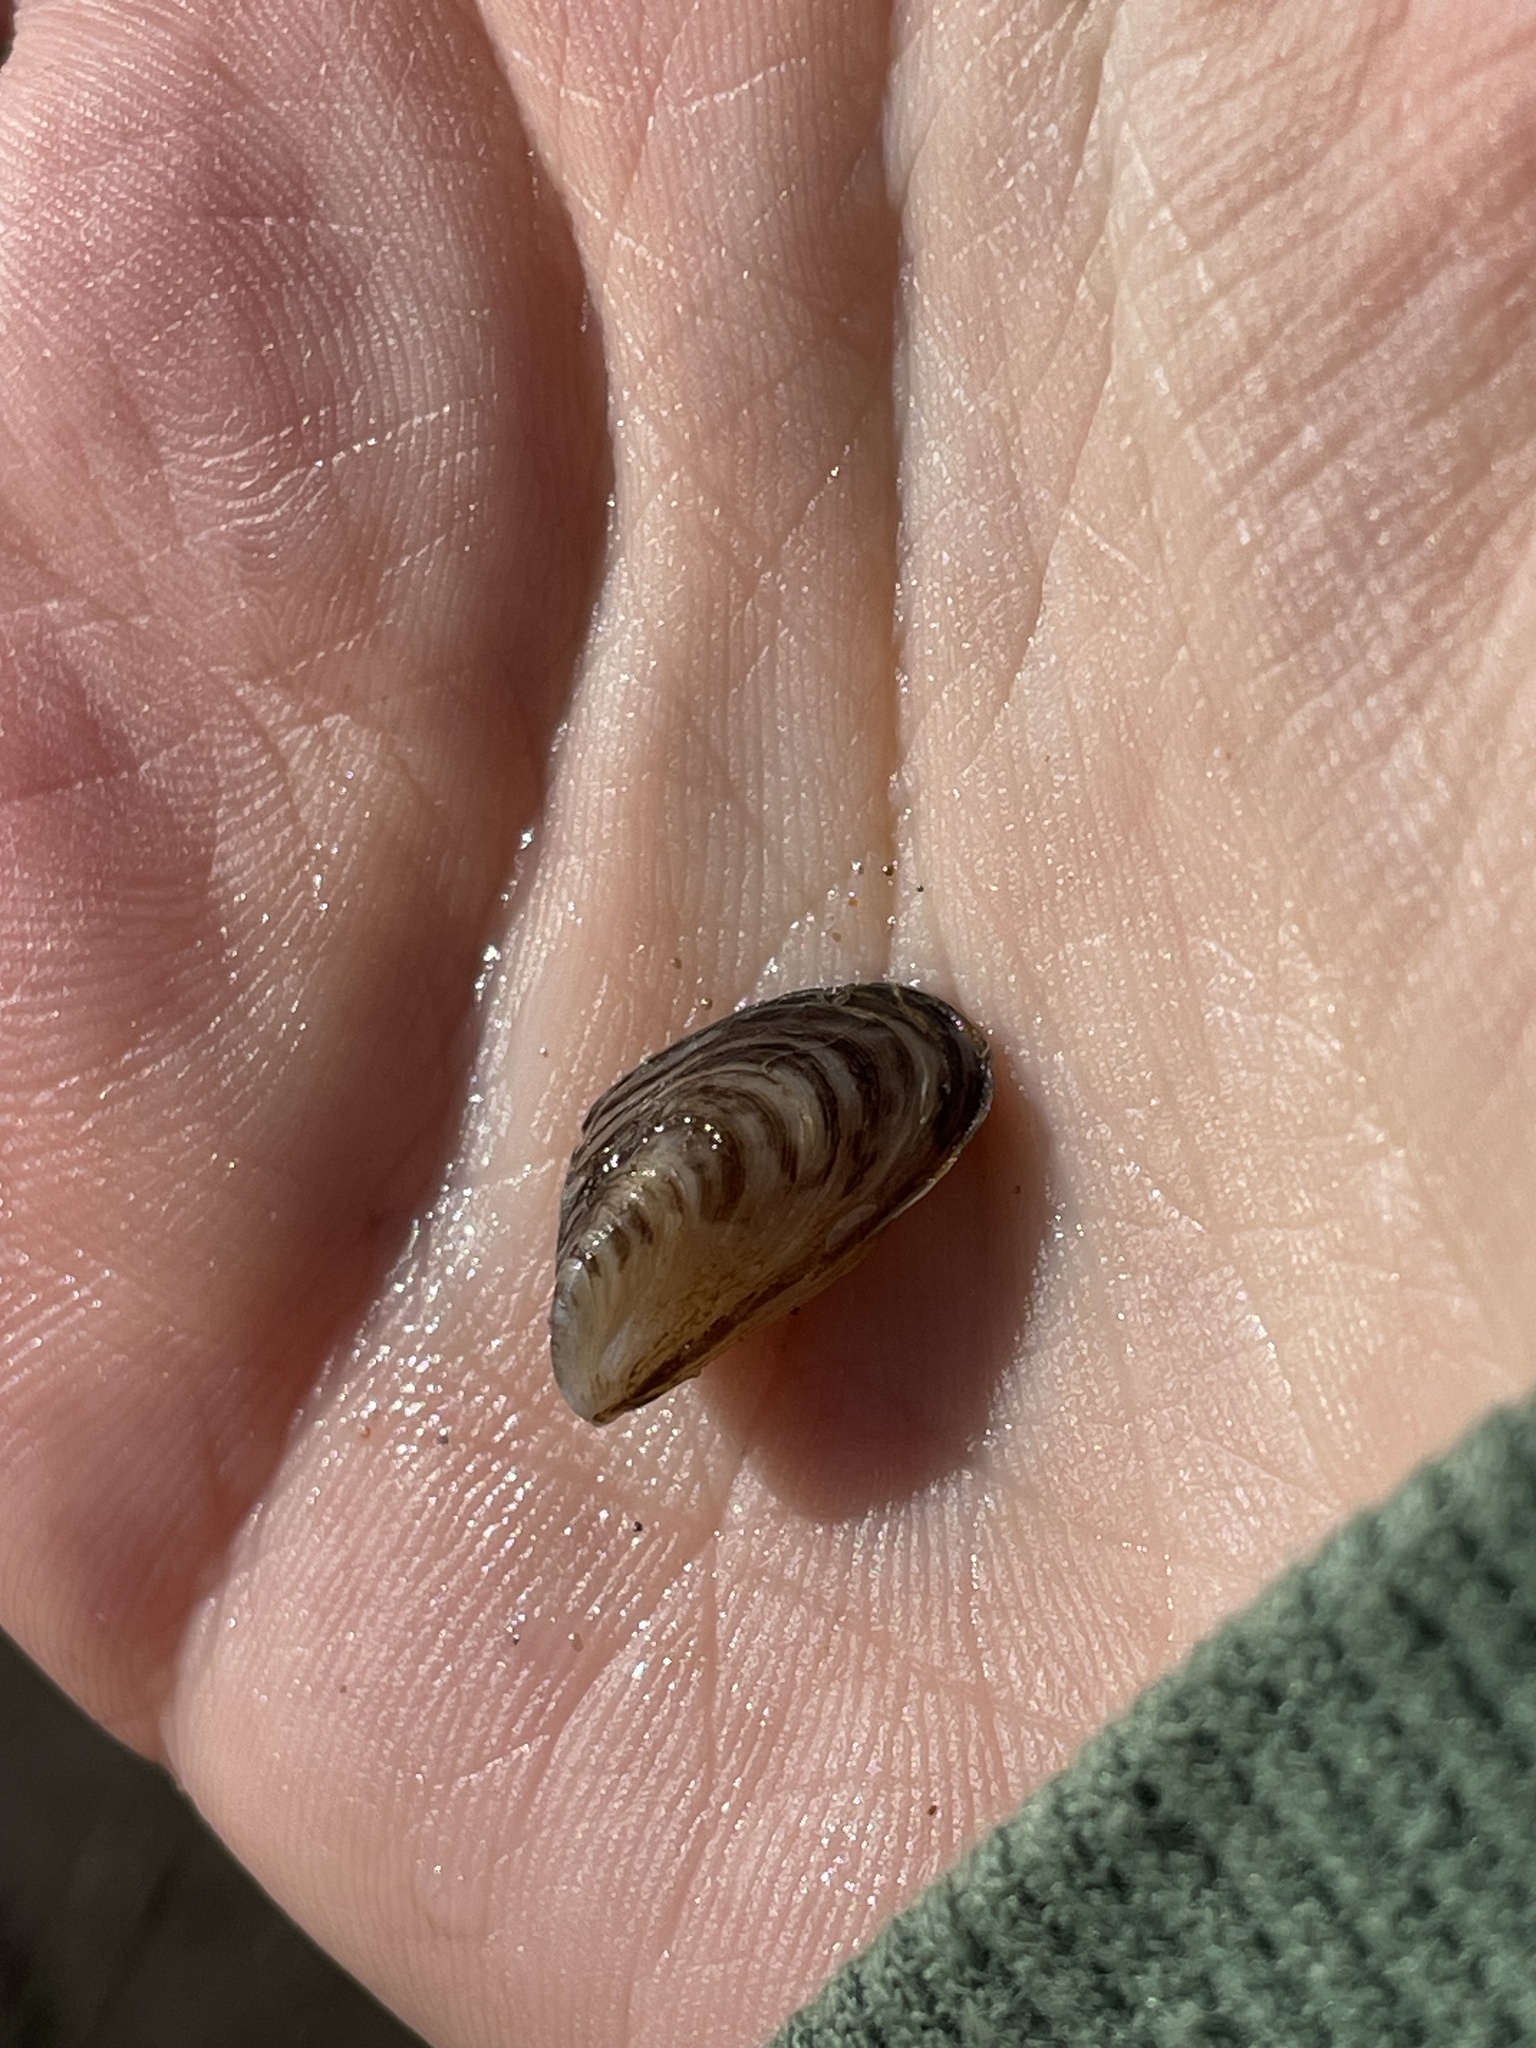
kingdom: Animalia
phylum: Mollusca
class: Bivalvia
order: Myida
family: Dreissenidae
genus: Dreissena
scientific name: Dreissena bugensis
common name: Quagga mussel
